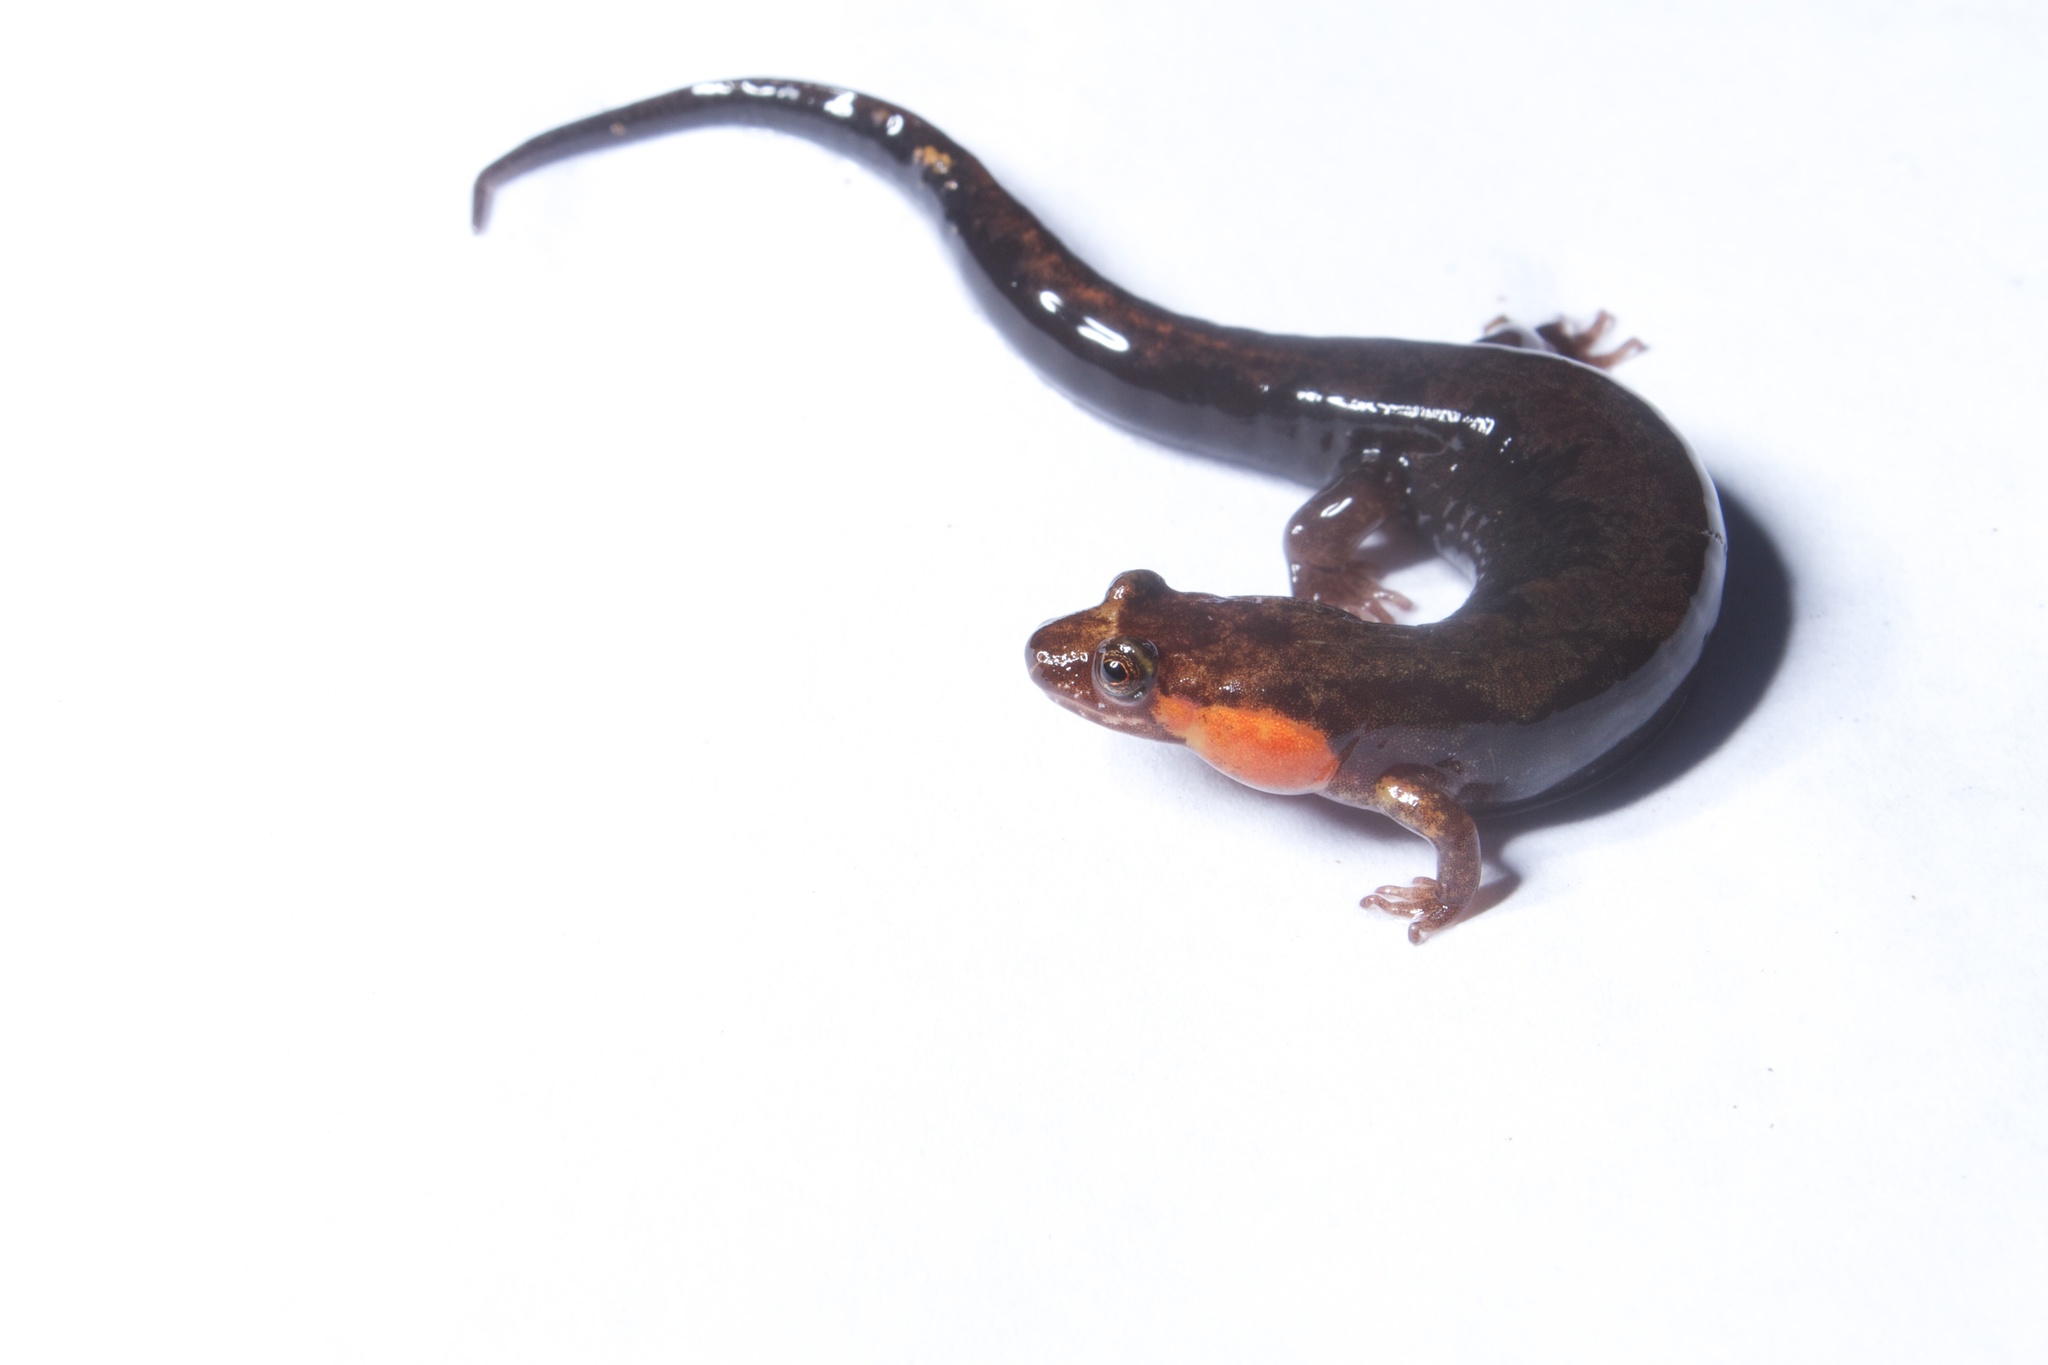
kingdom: Animalia
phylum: Chordata
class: Amphibia
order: Caudata
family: Plethodontidae
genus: Desmognathus
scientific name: Desmognathus imitator
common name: Imitator salamander
